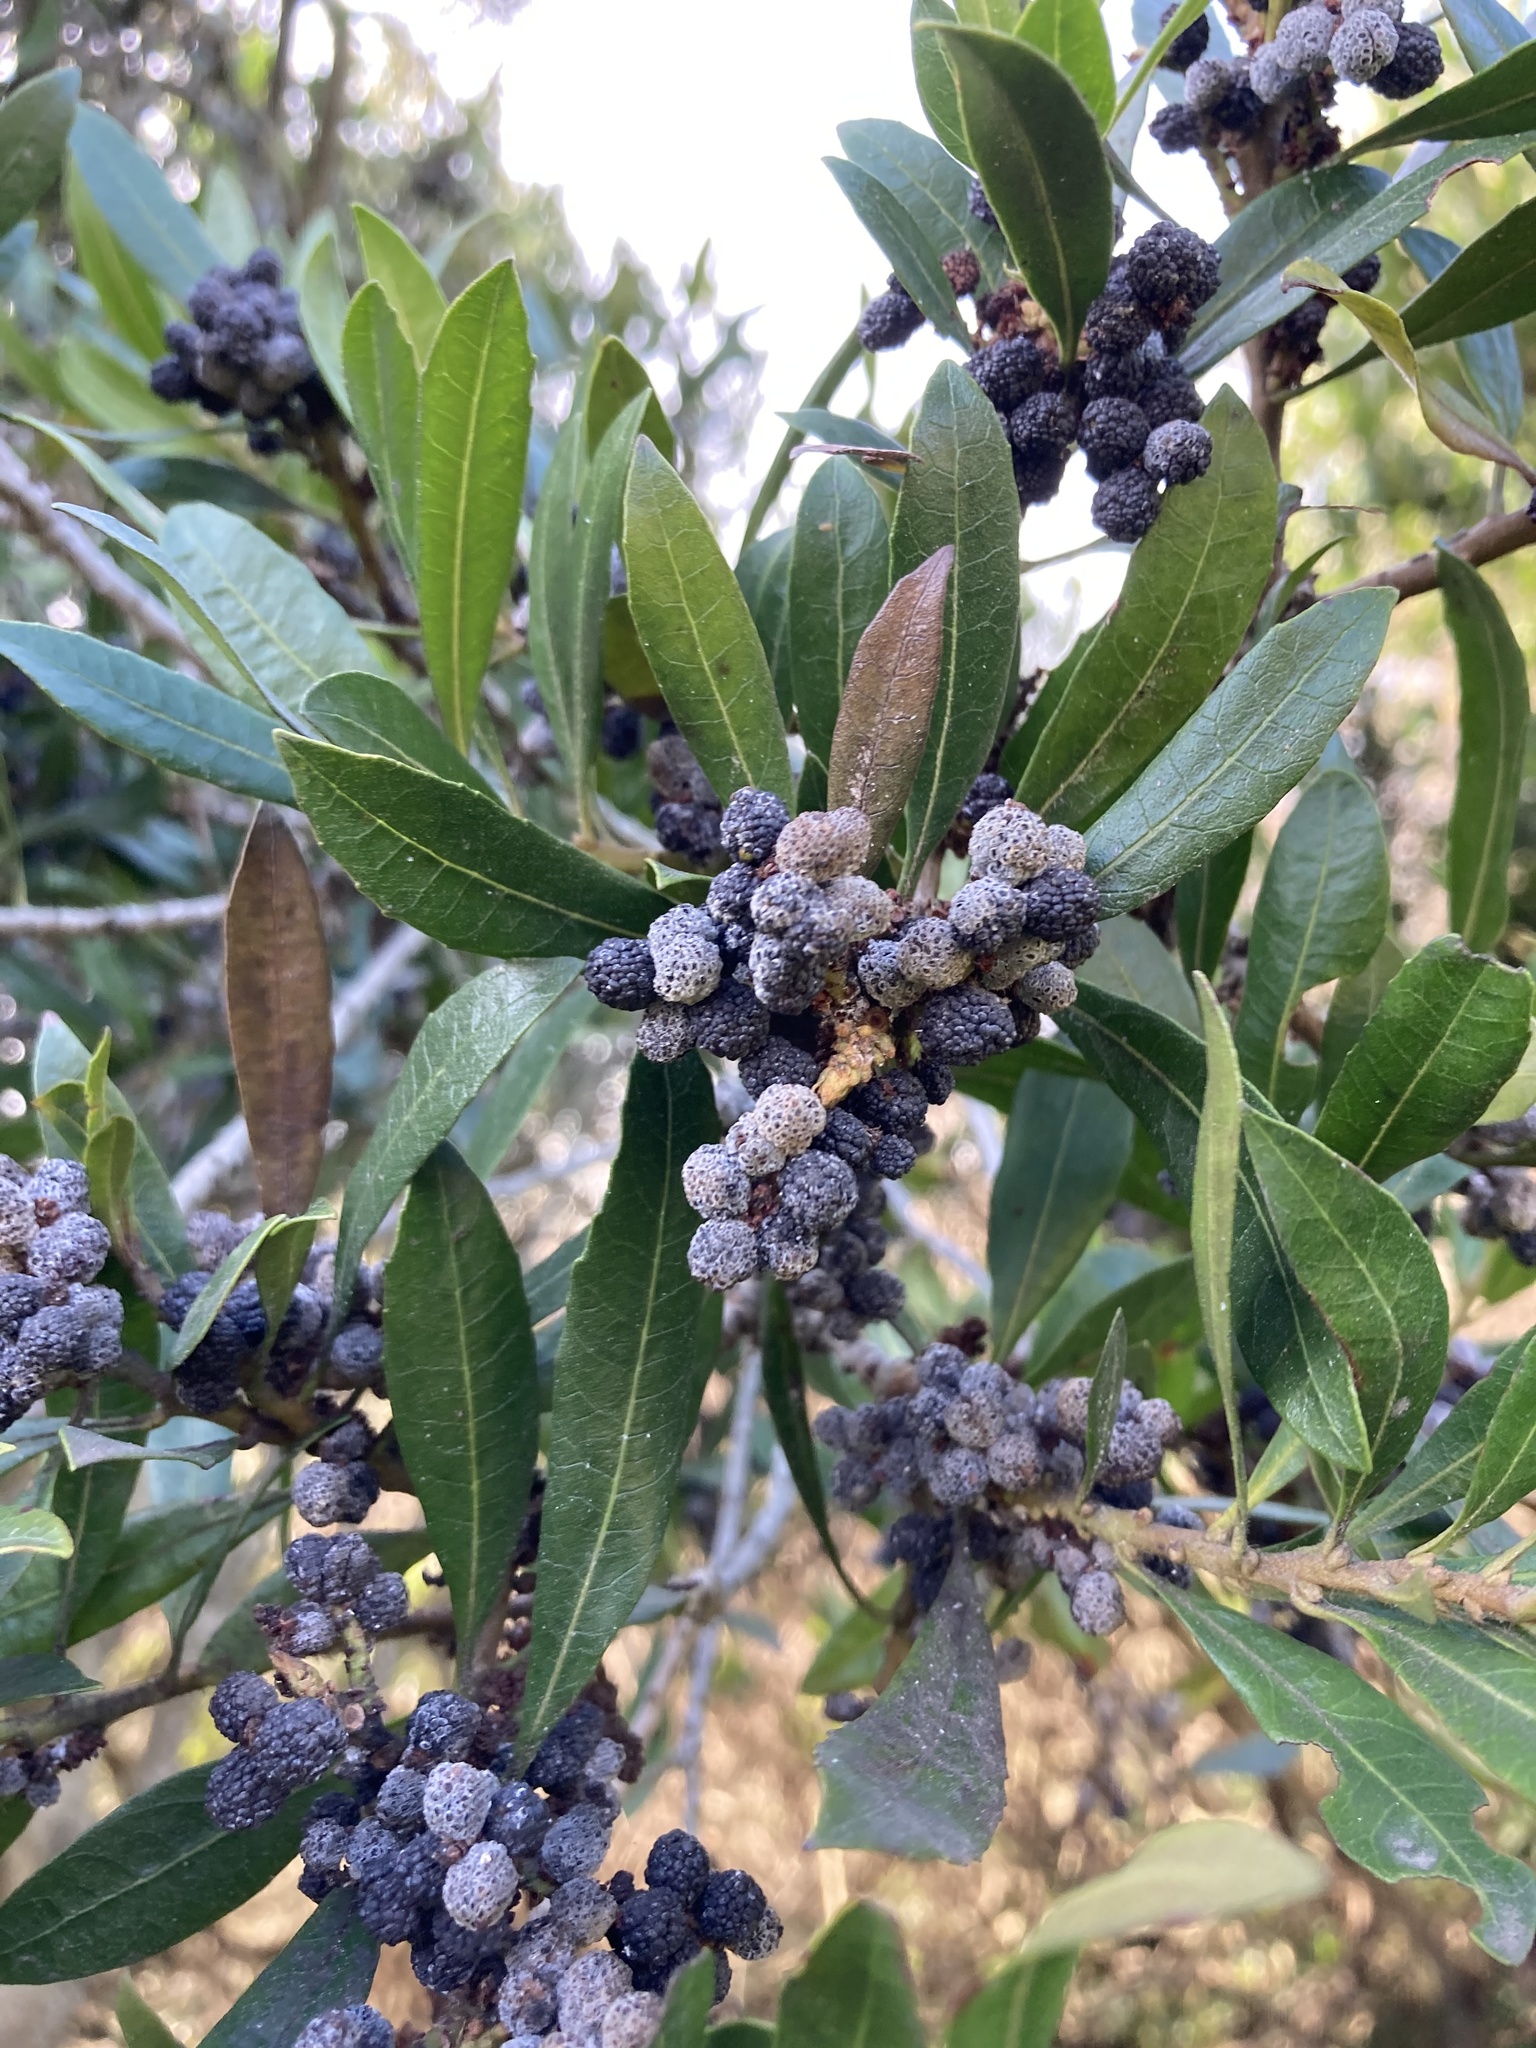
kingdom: Plantae
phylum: Tracheophyta
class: Magnoliopsida
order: Fagales
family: Myricaceae
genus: Morella
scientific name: Morella californica
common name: California wax-myrtle
